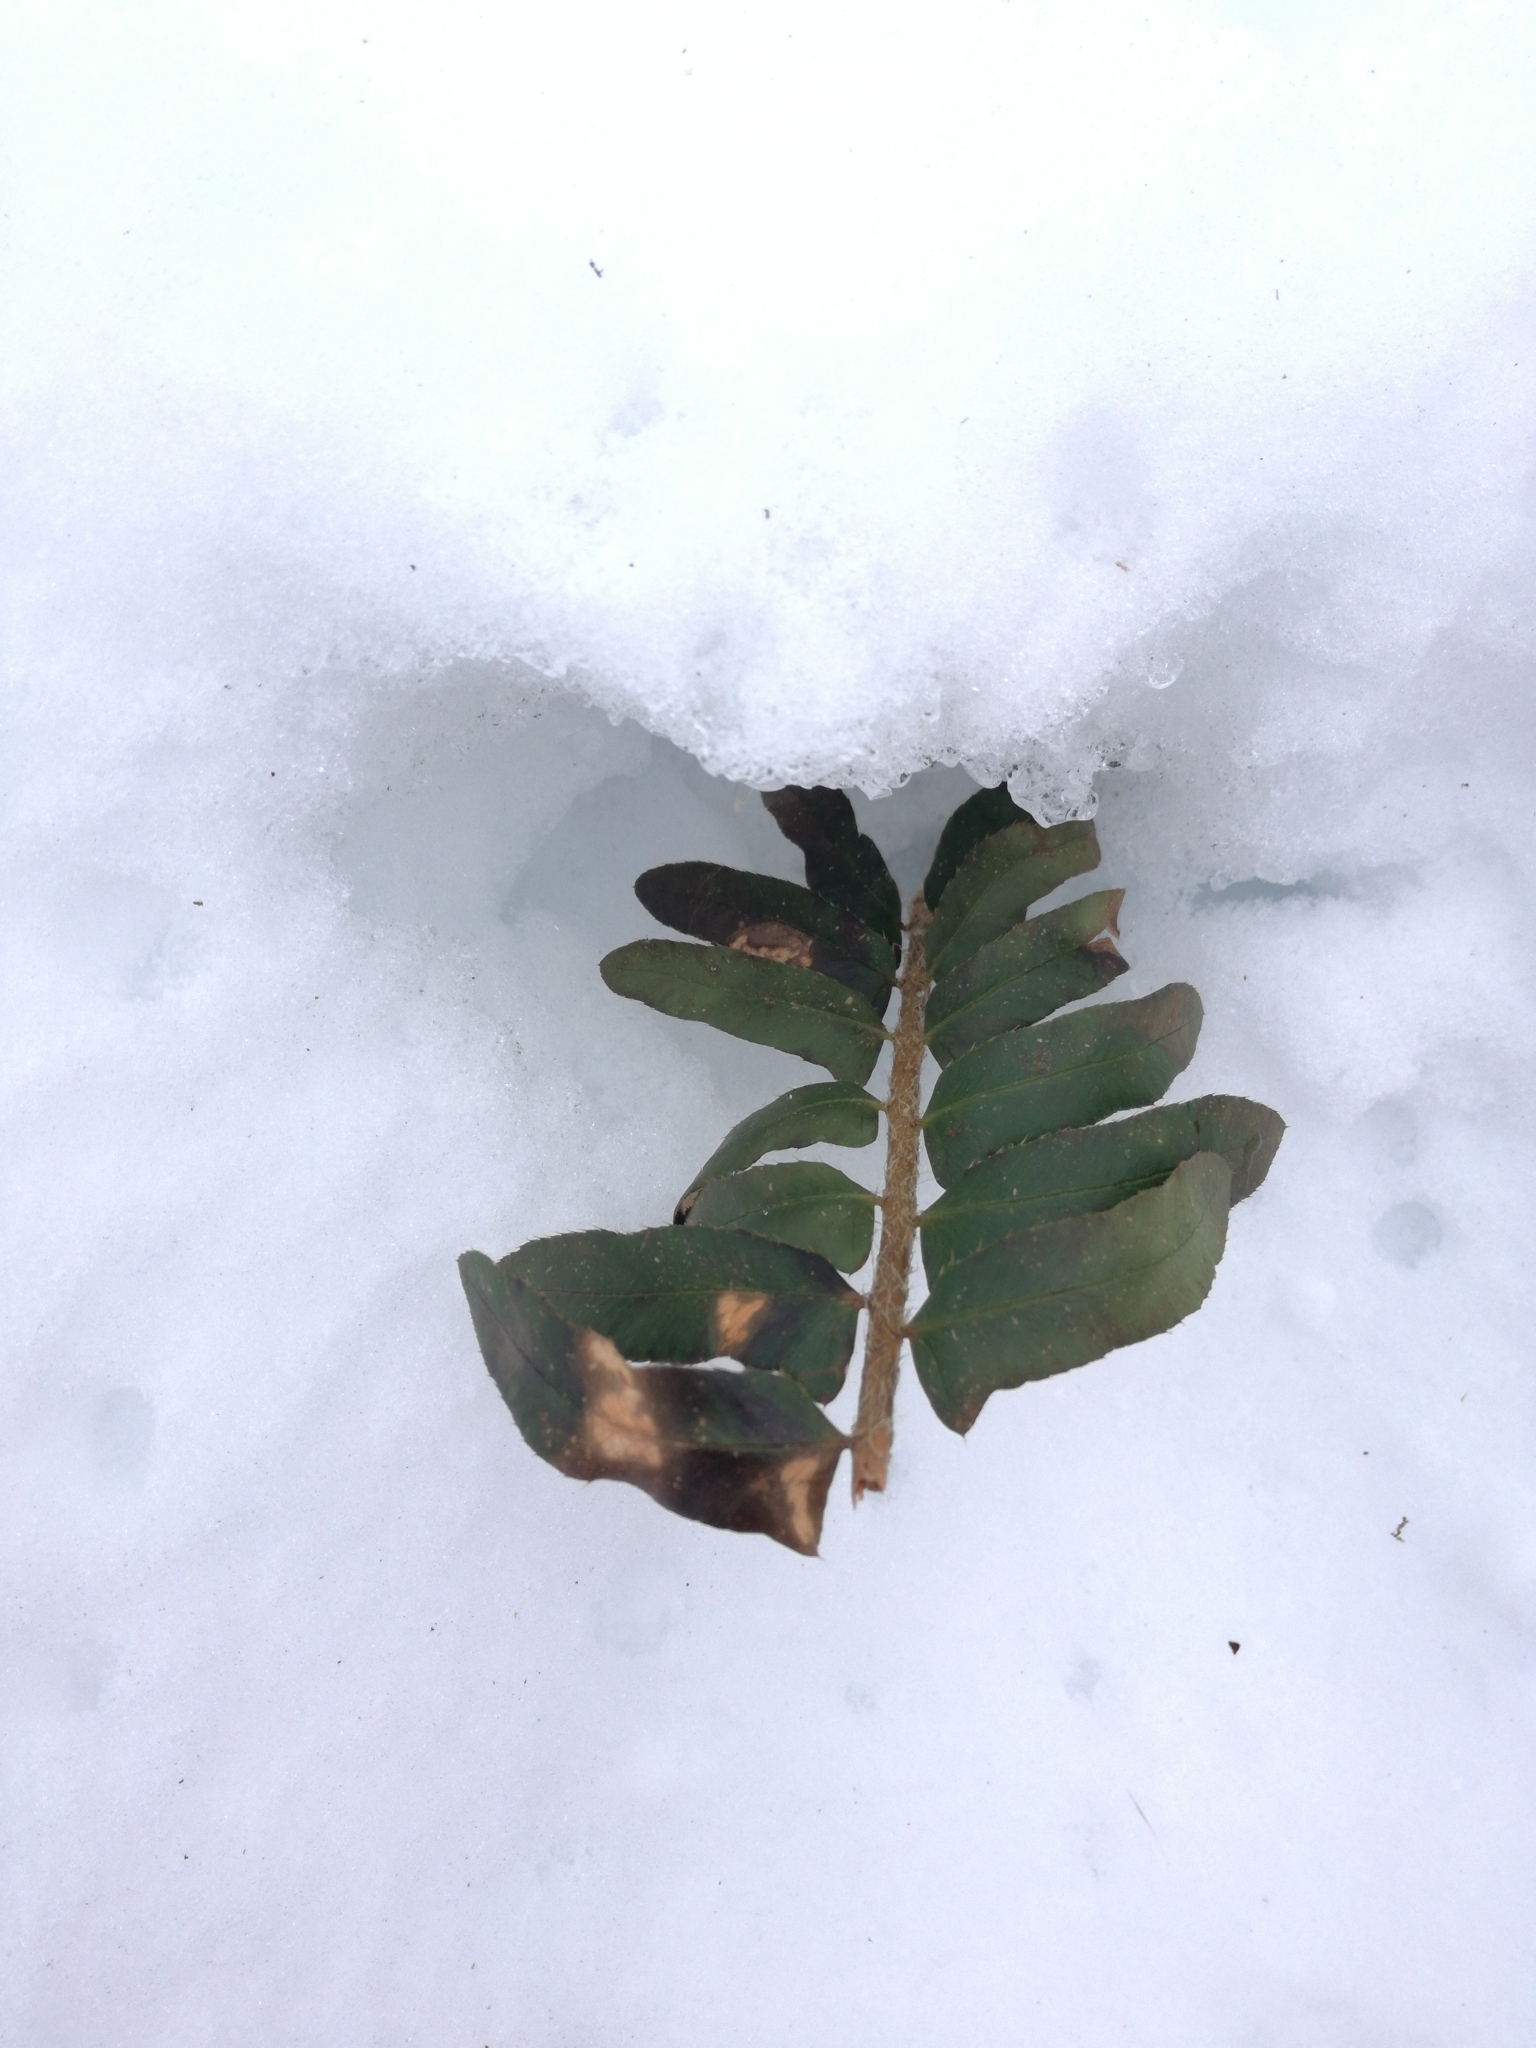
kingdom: Plantae
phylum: Tracheophyta
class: Polypodiopsida
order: Polypodiales
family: Dryopteridaceae
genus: Polystichum
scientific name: Polystichum acrostichoides
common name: Christmas fern
